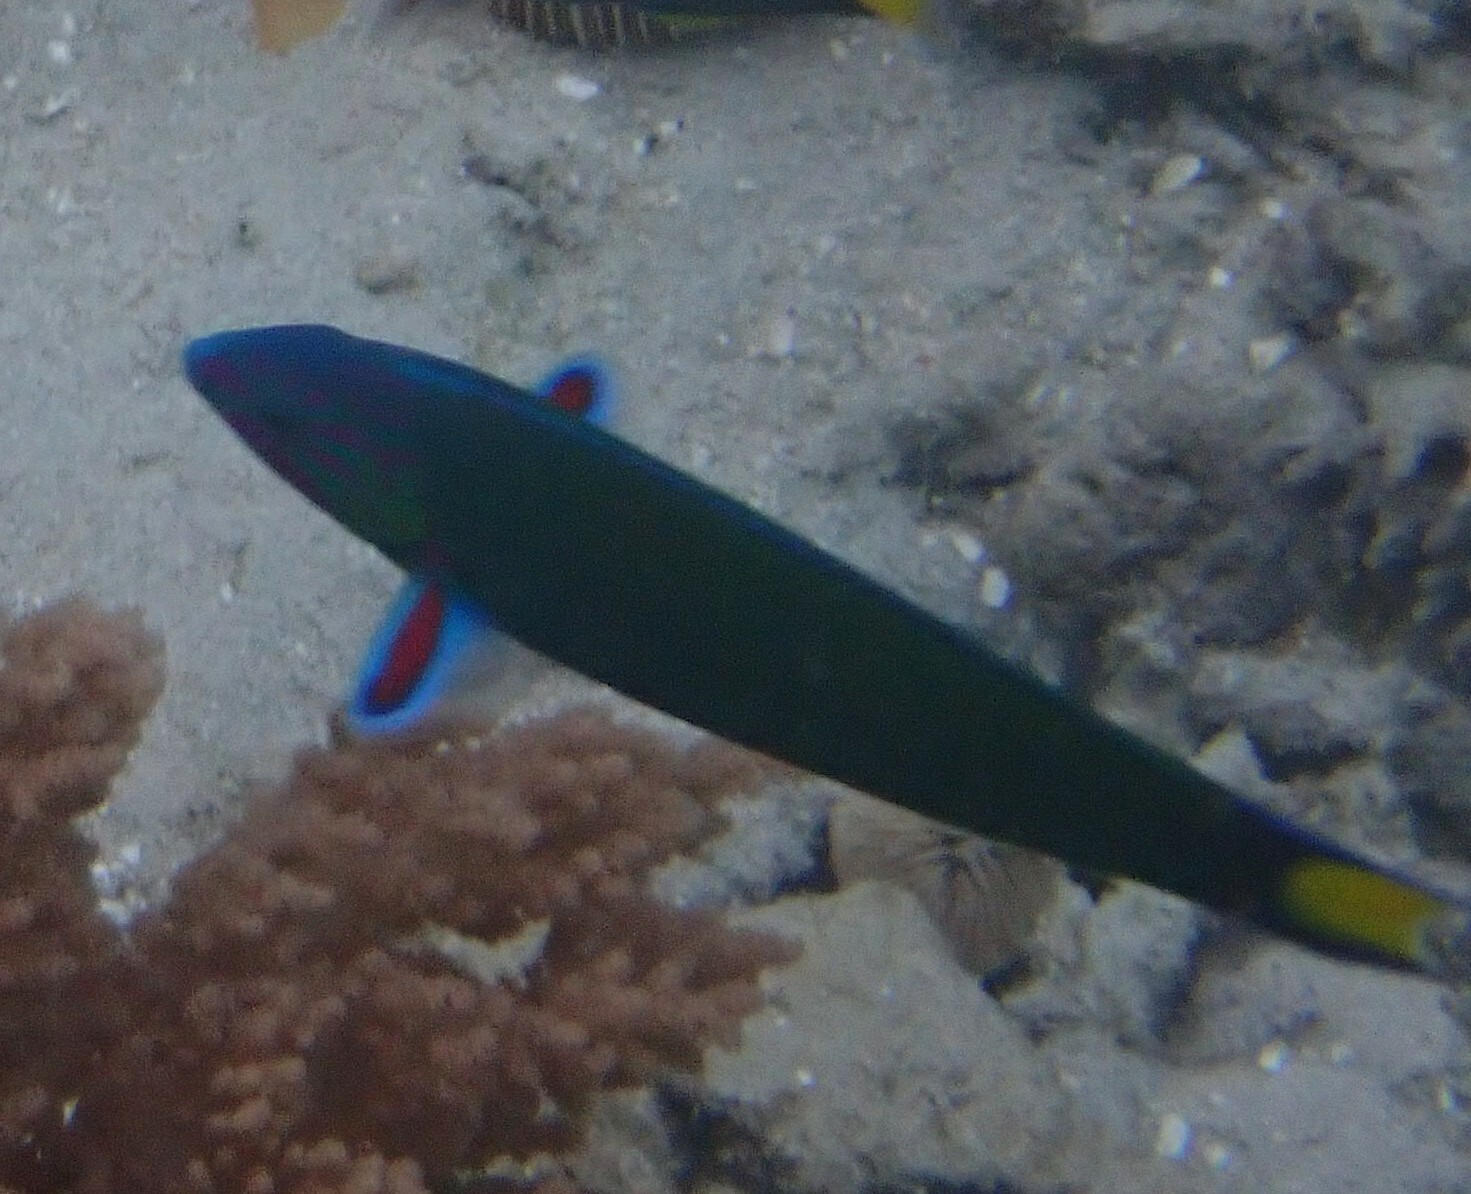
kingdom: Animalia
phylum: Chordata
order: Perciformes
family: Labridae
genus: Thalassoma
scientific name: Thalassoma lunare
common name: Blue wrasse
